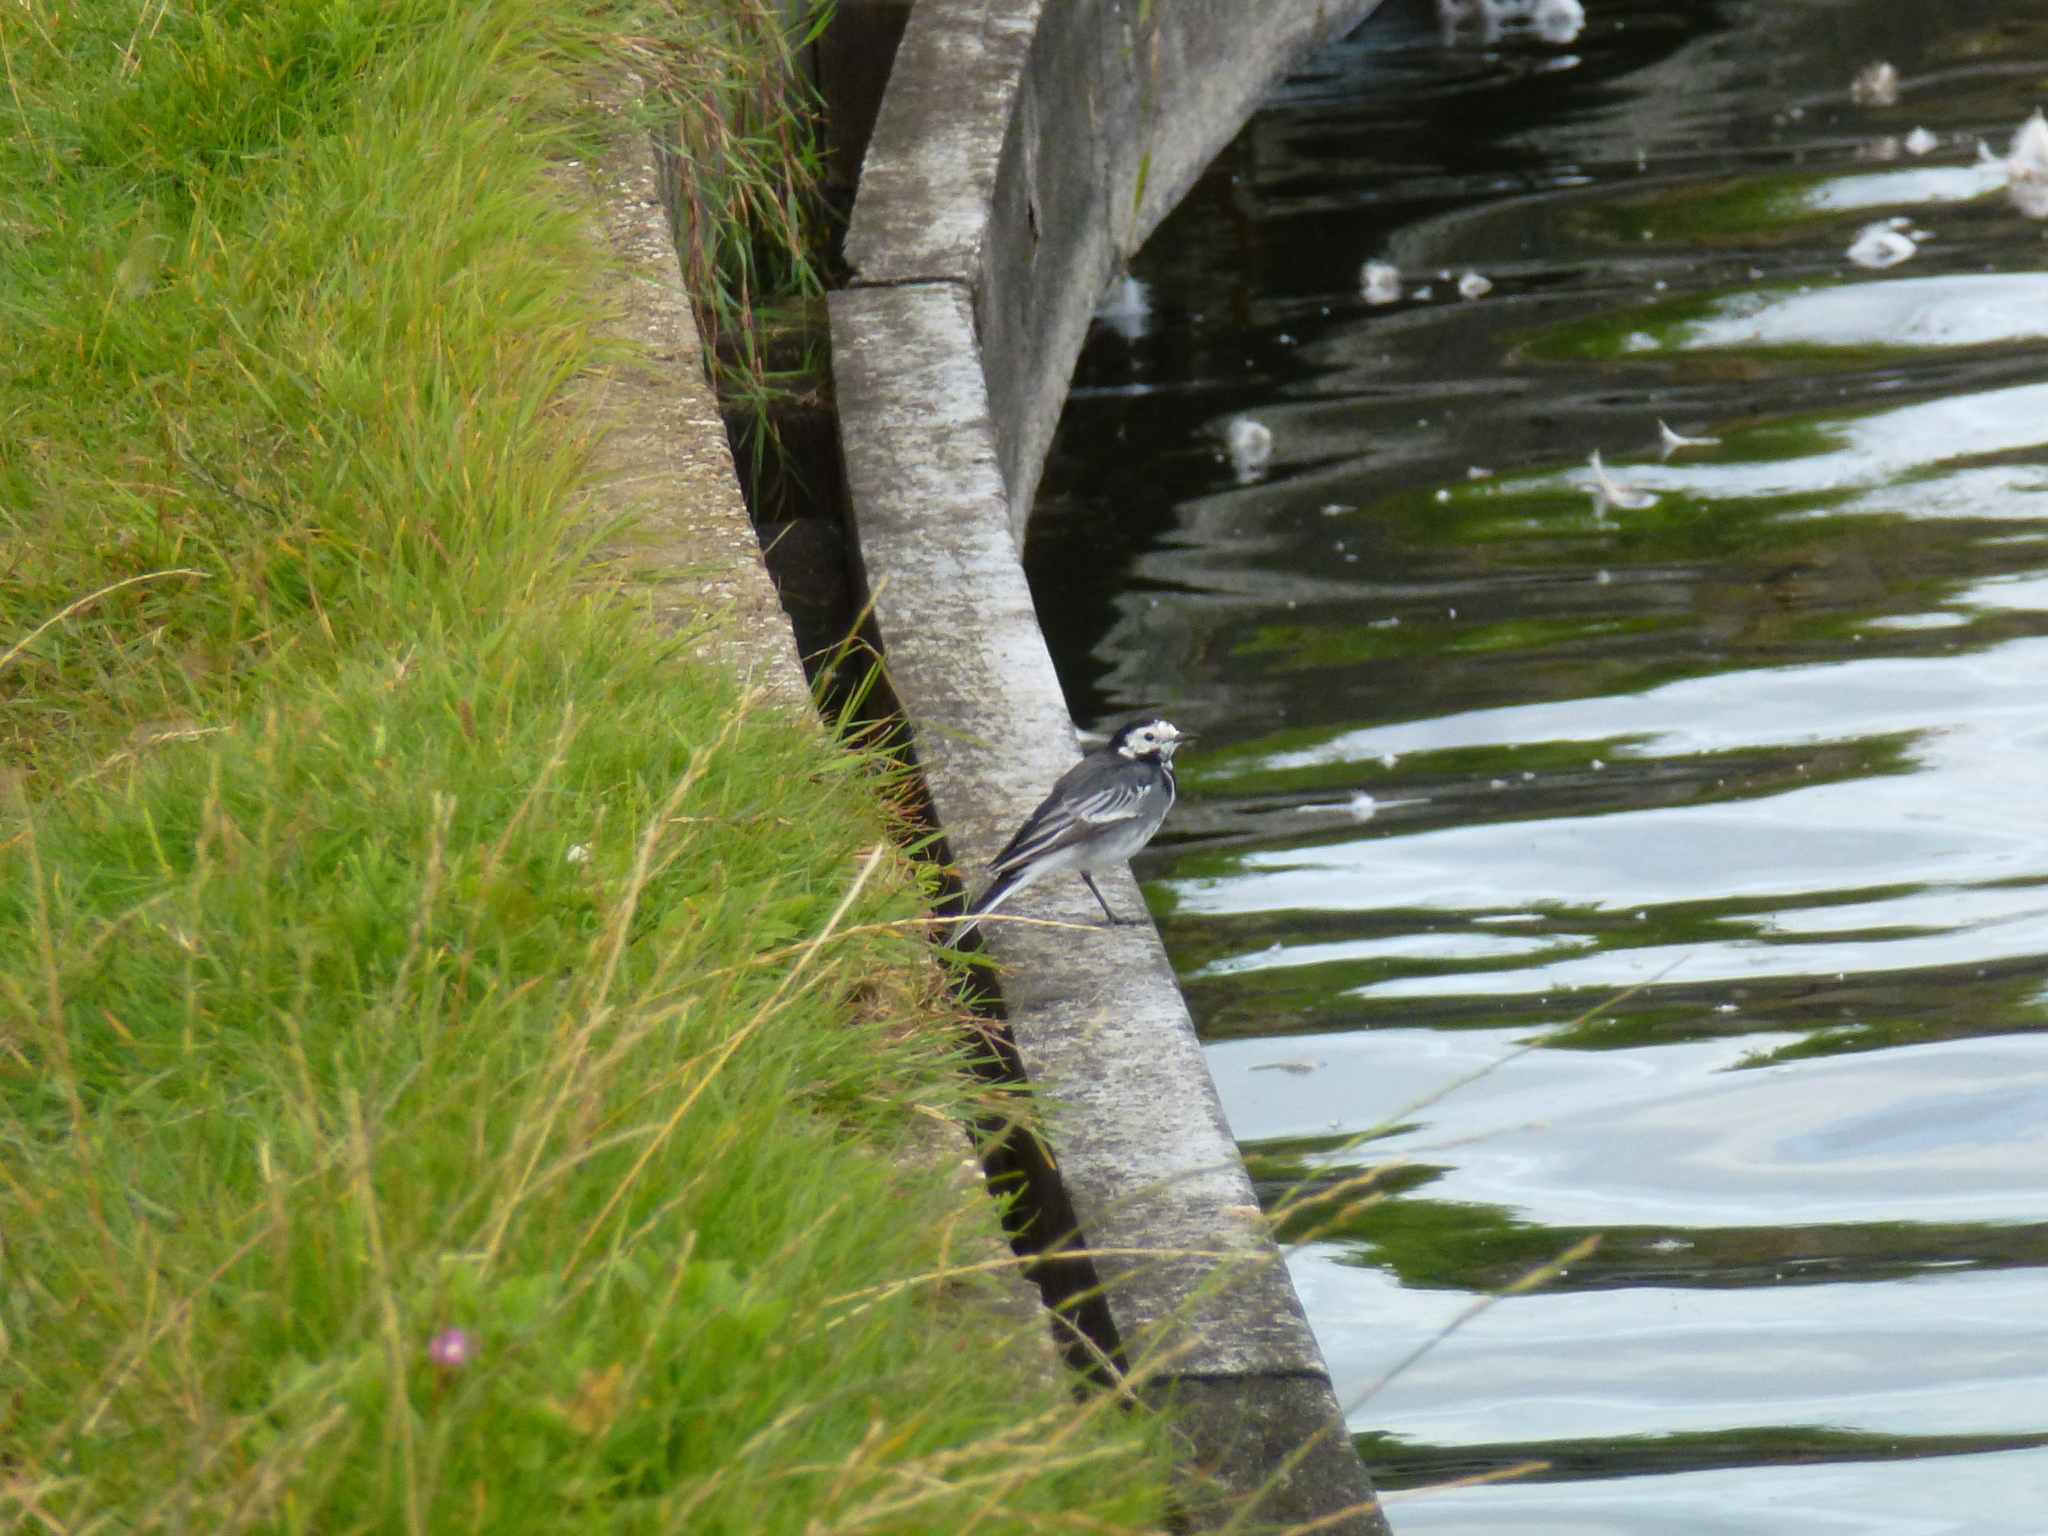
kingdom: Animalia
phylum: Chordata
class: Aves
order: Passeriformes
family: Motacillidae
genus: Motacilla
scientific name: Motacilla alba
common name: White wagtail
